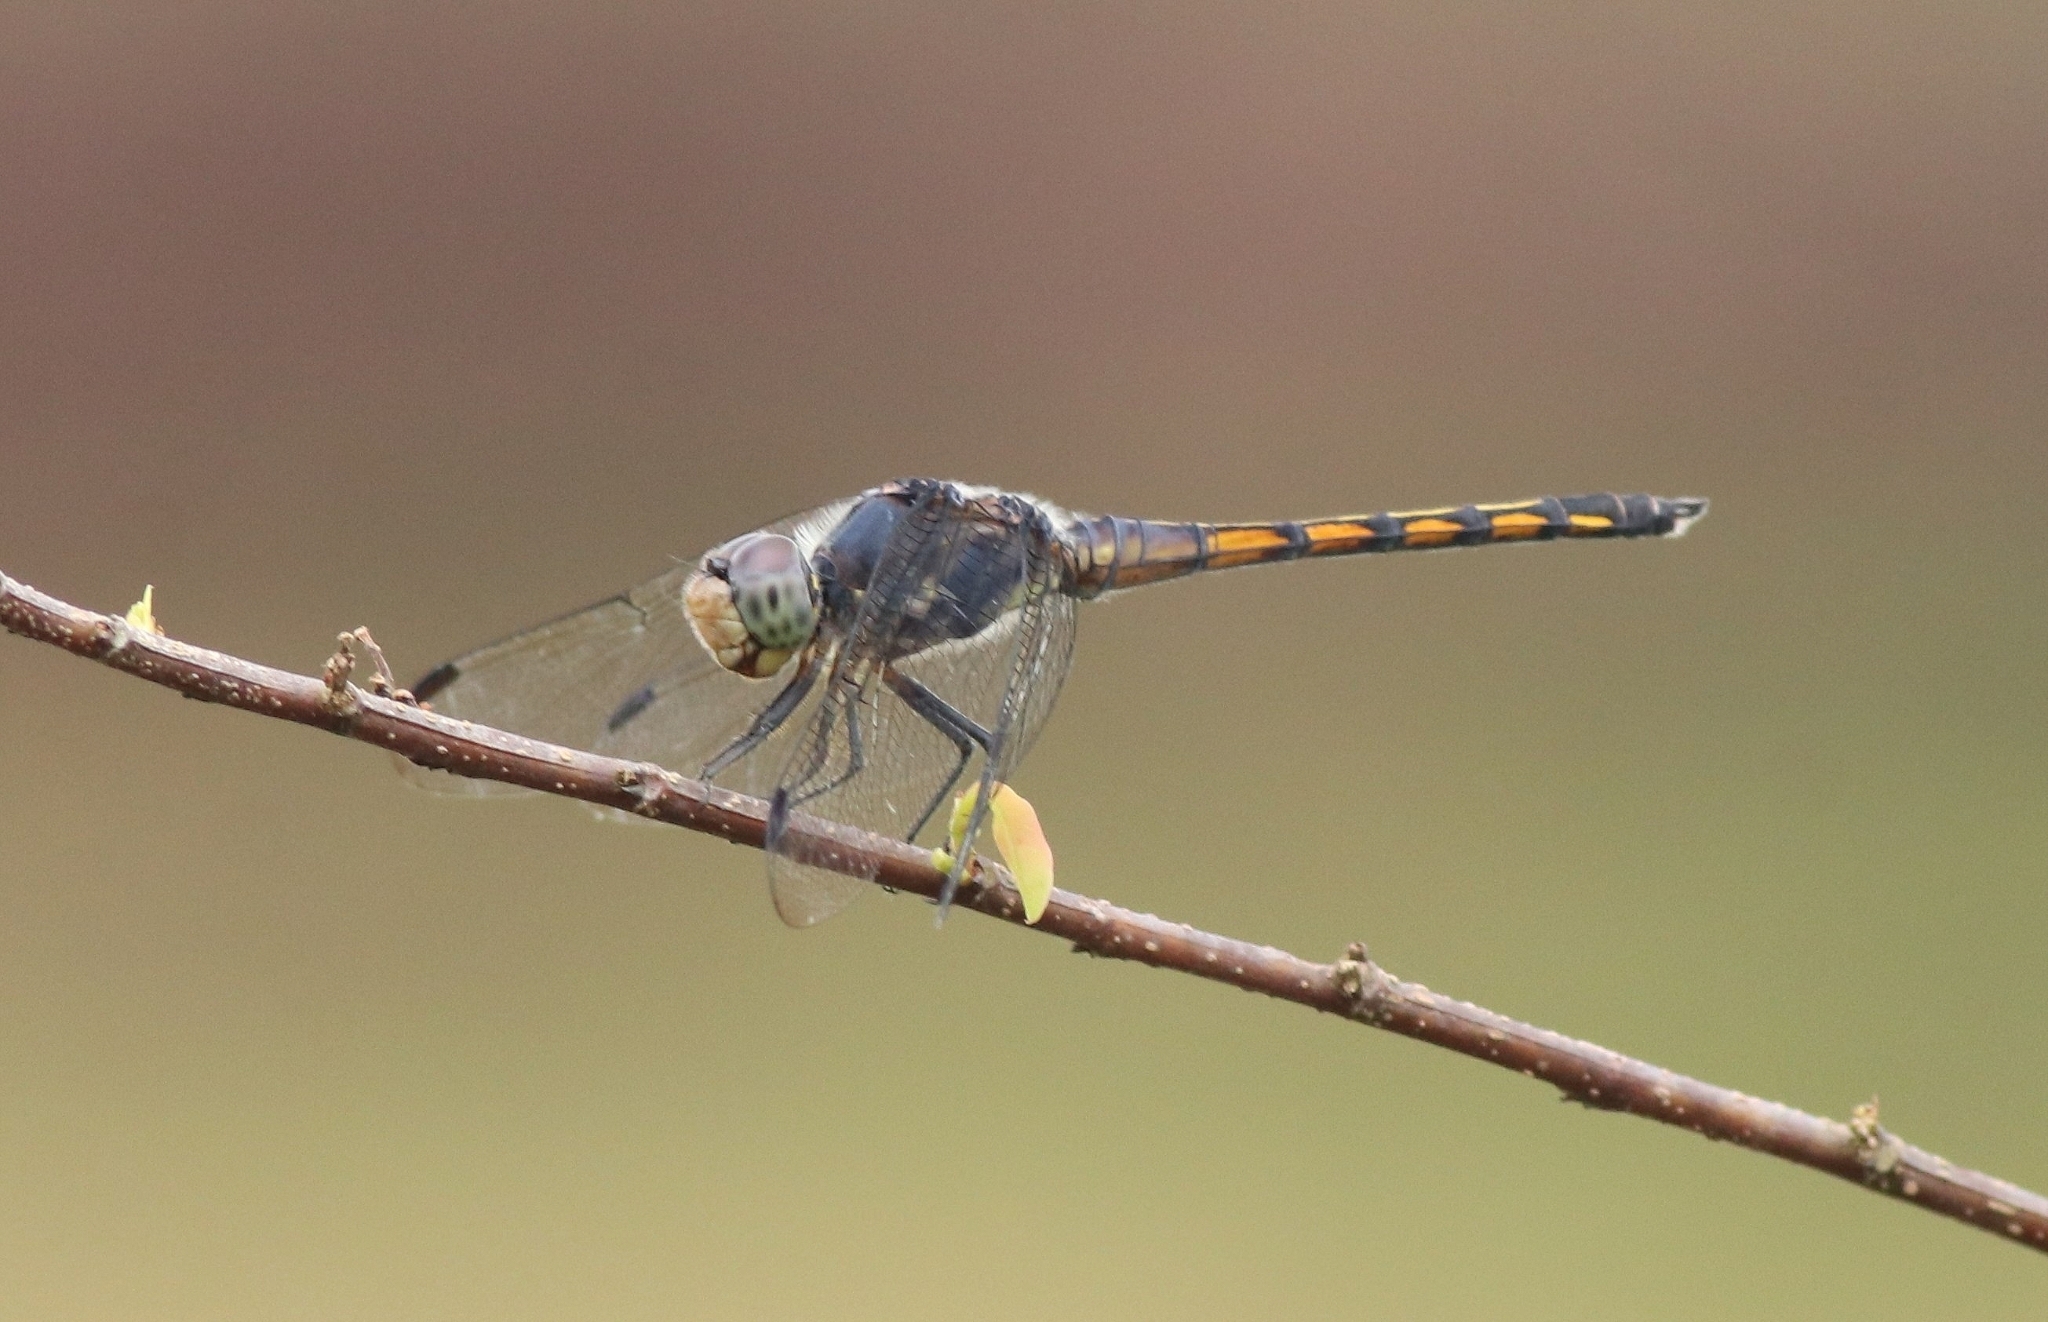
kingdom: Animalia
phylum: Arthropoda
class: Insecta
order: Odonata
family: Libellulidae
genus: Potamarcha
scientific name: Potamarcha congener
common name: Blue chaser
